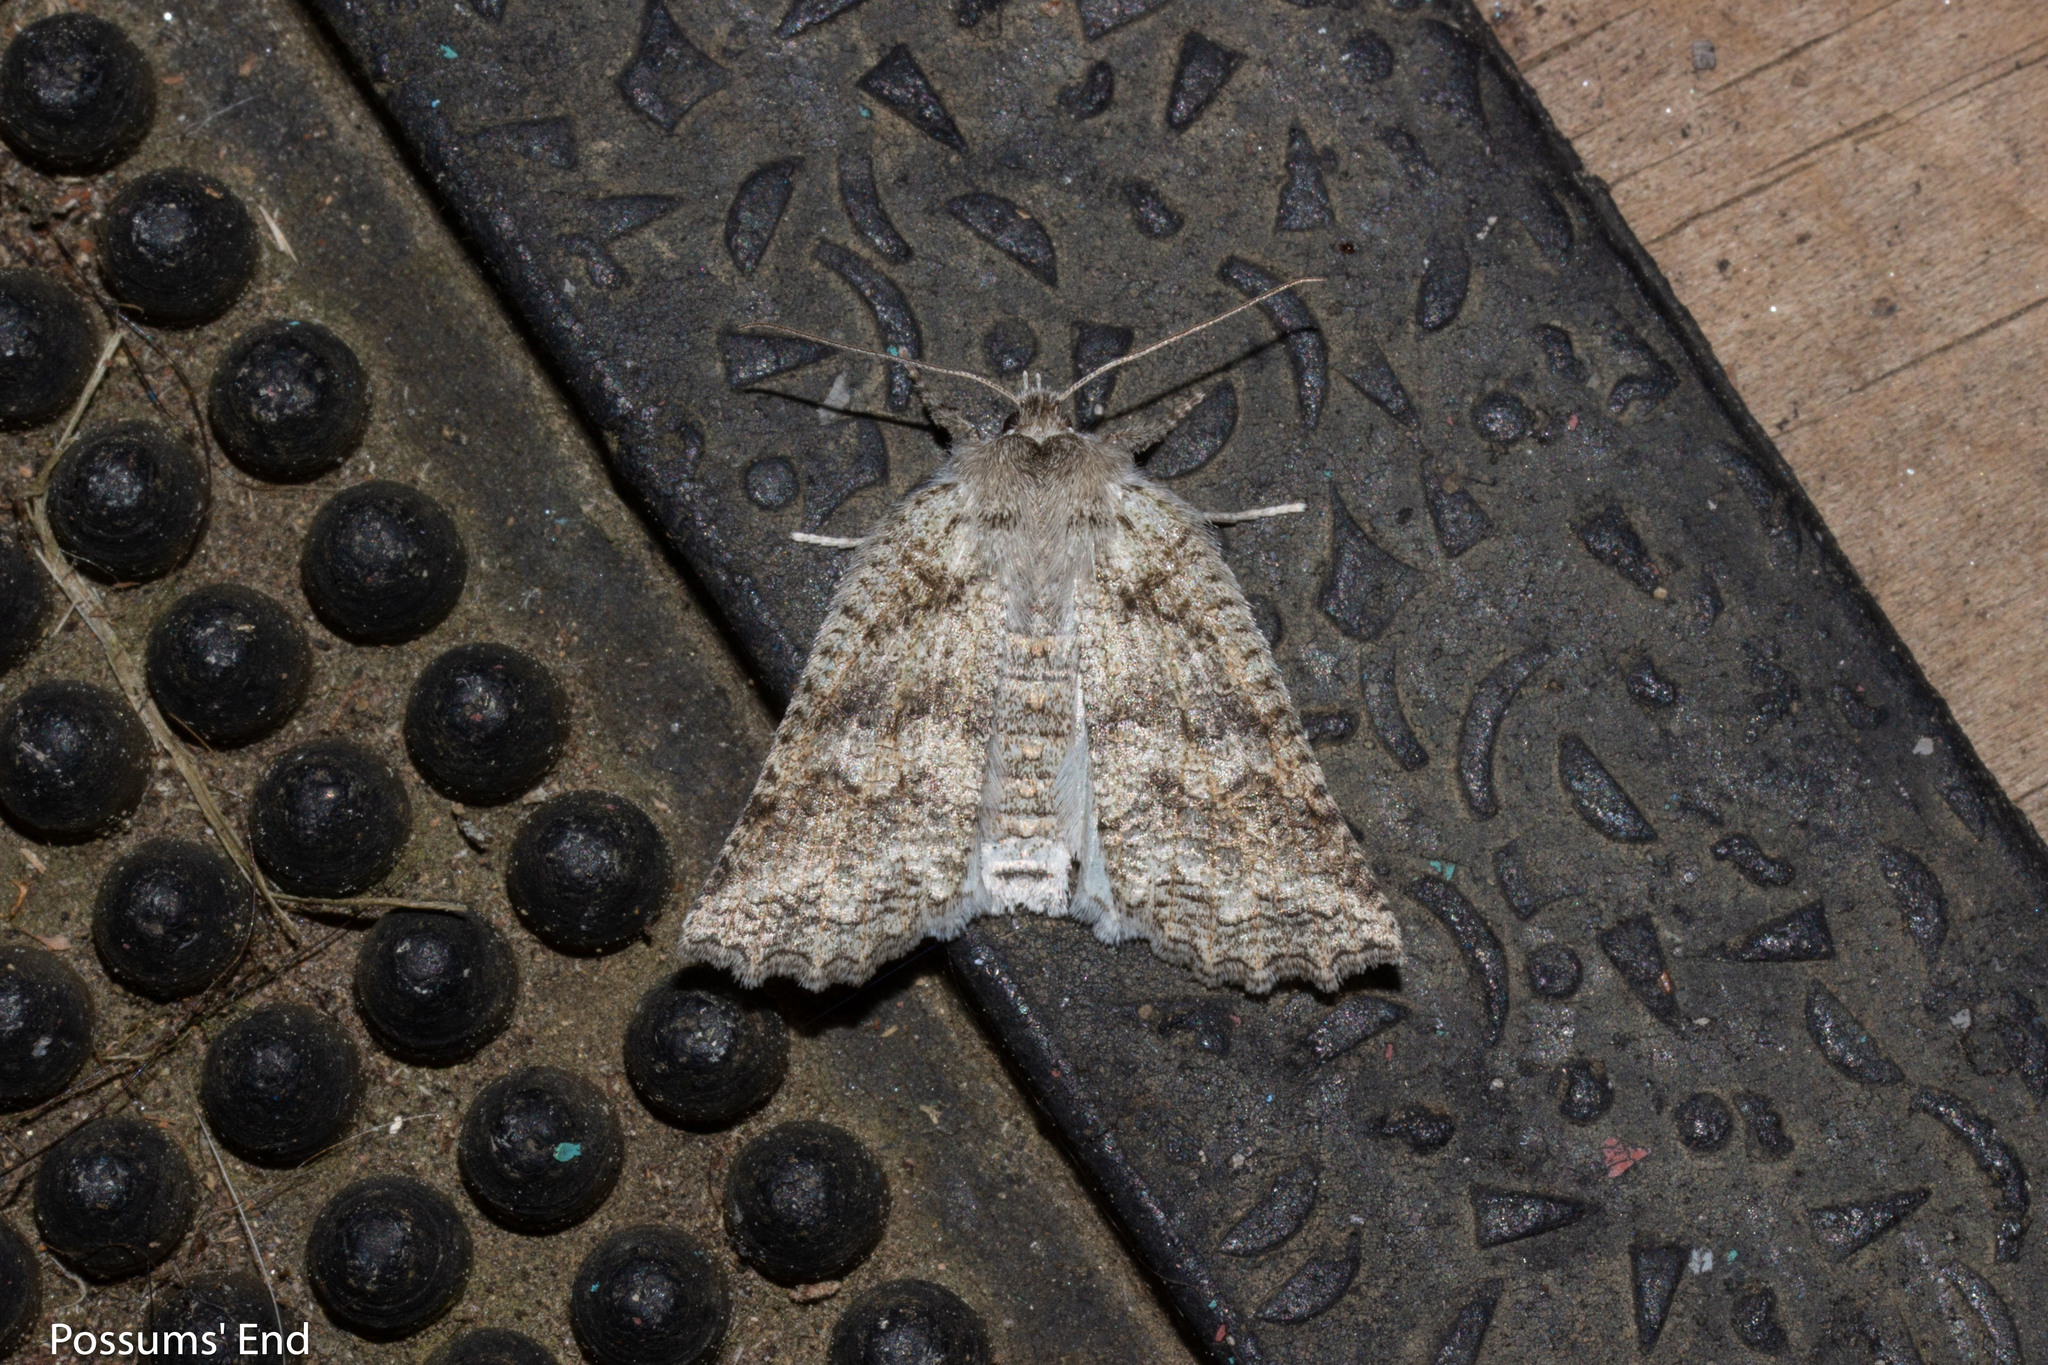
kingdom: Animalia
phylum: Arthropoda
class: Insecta
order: Lepidoptera
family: Geometridae
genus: Declana
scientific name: Declana floccosa
